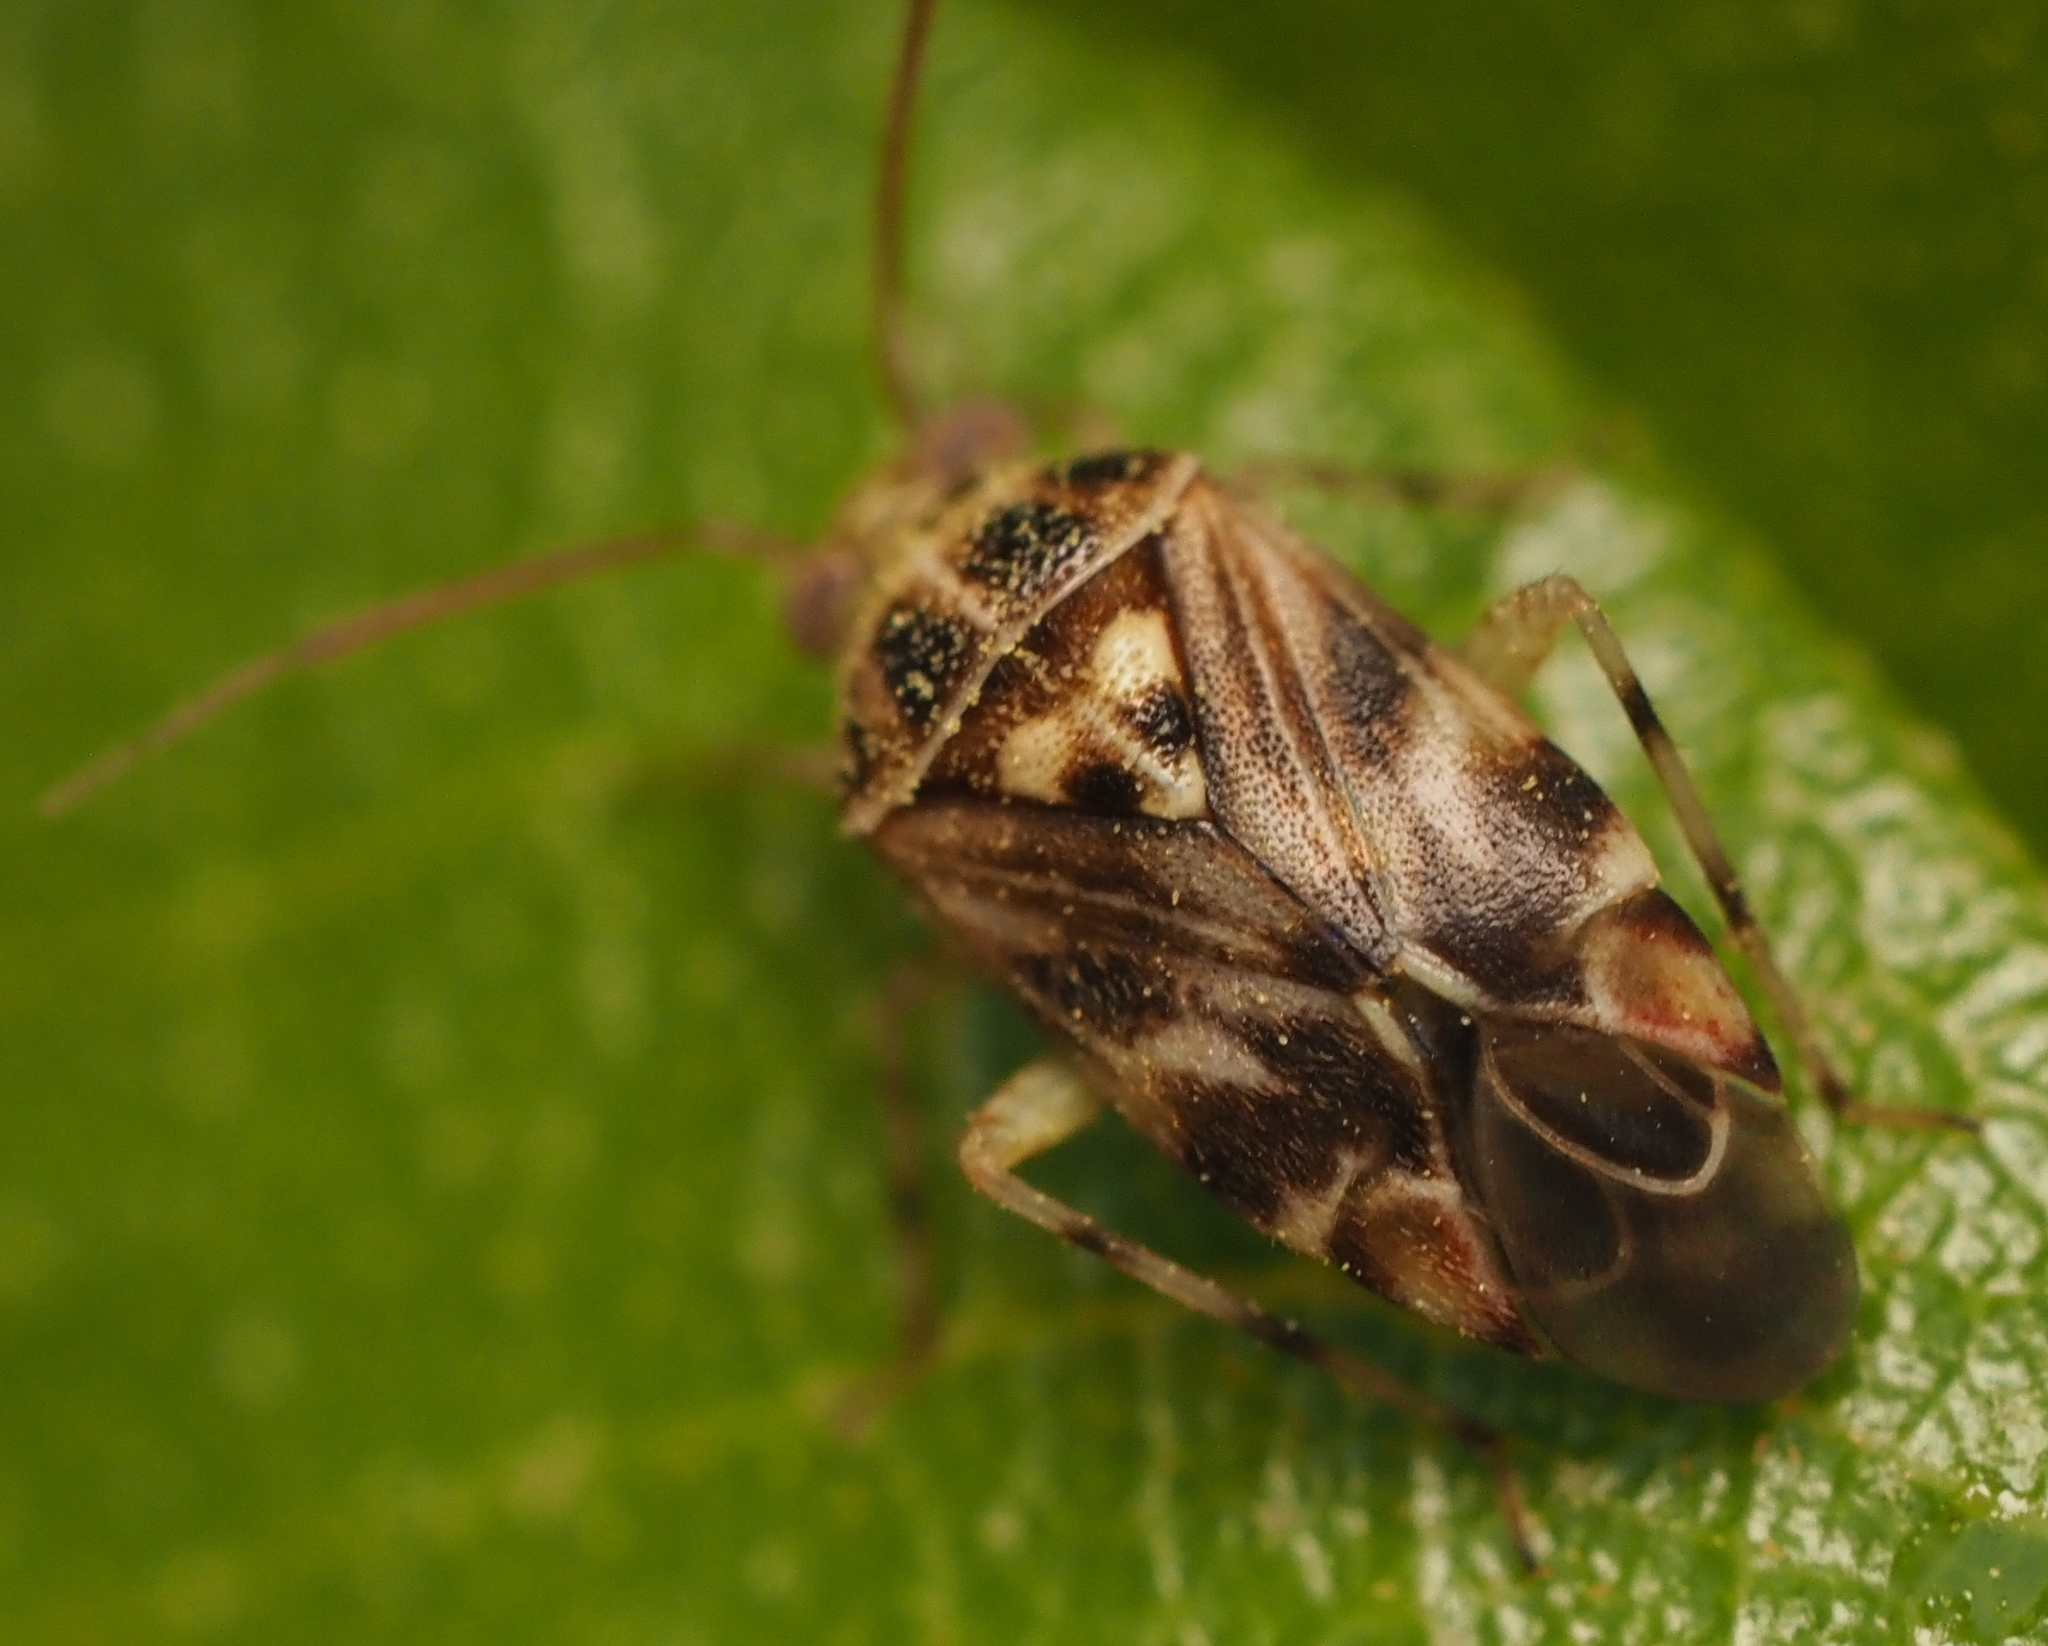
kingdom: Animalia
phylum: Arthropoda
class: Insecta
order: Hemiptera
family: Miridae
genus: Tropidosteptes
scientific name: Tropidosteptes quercicola
